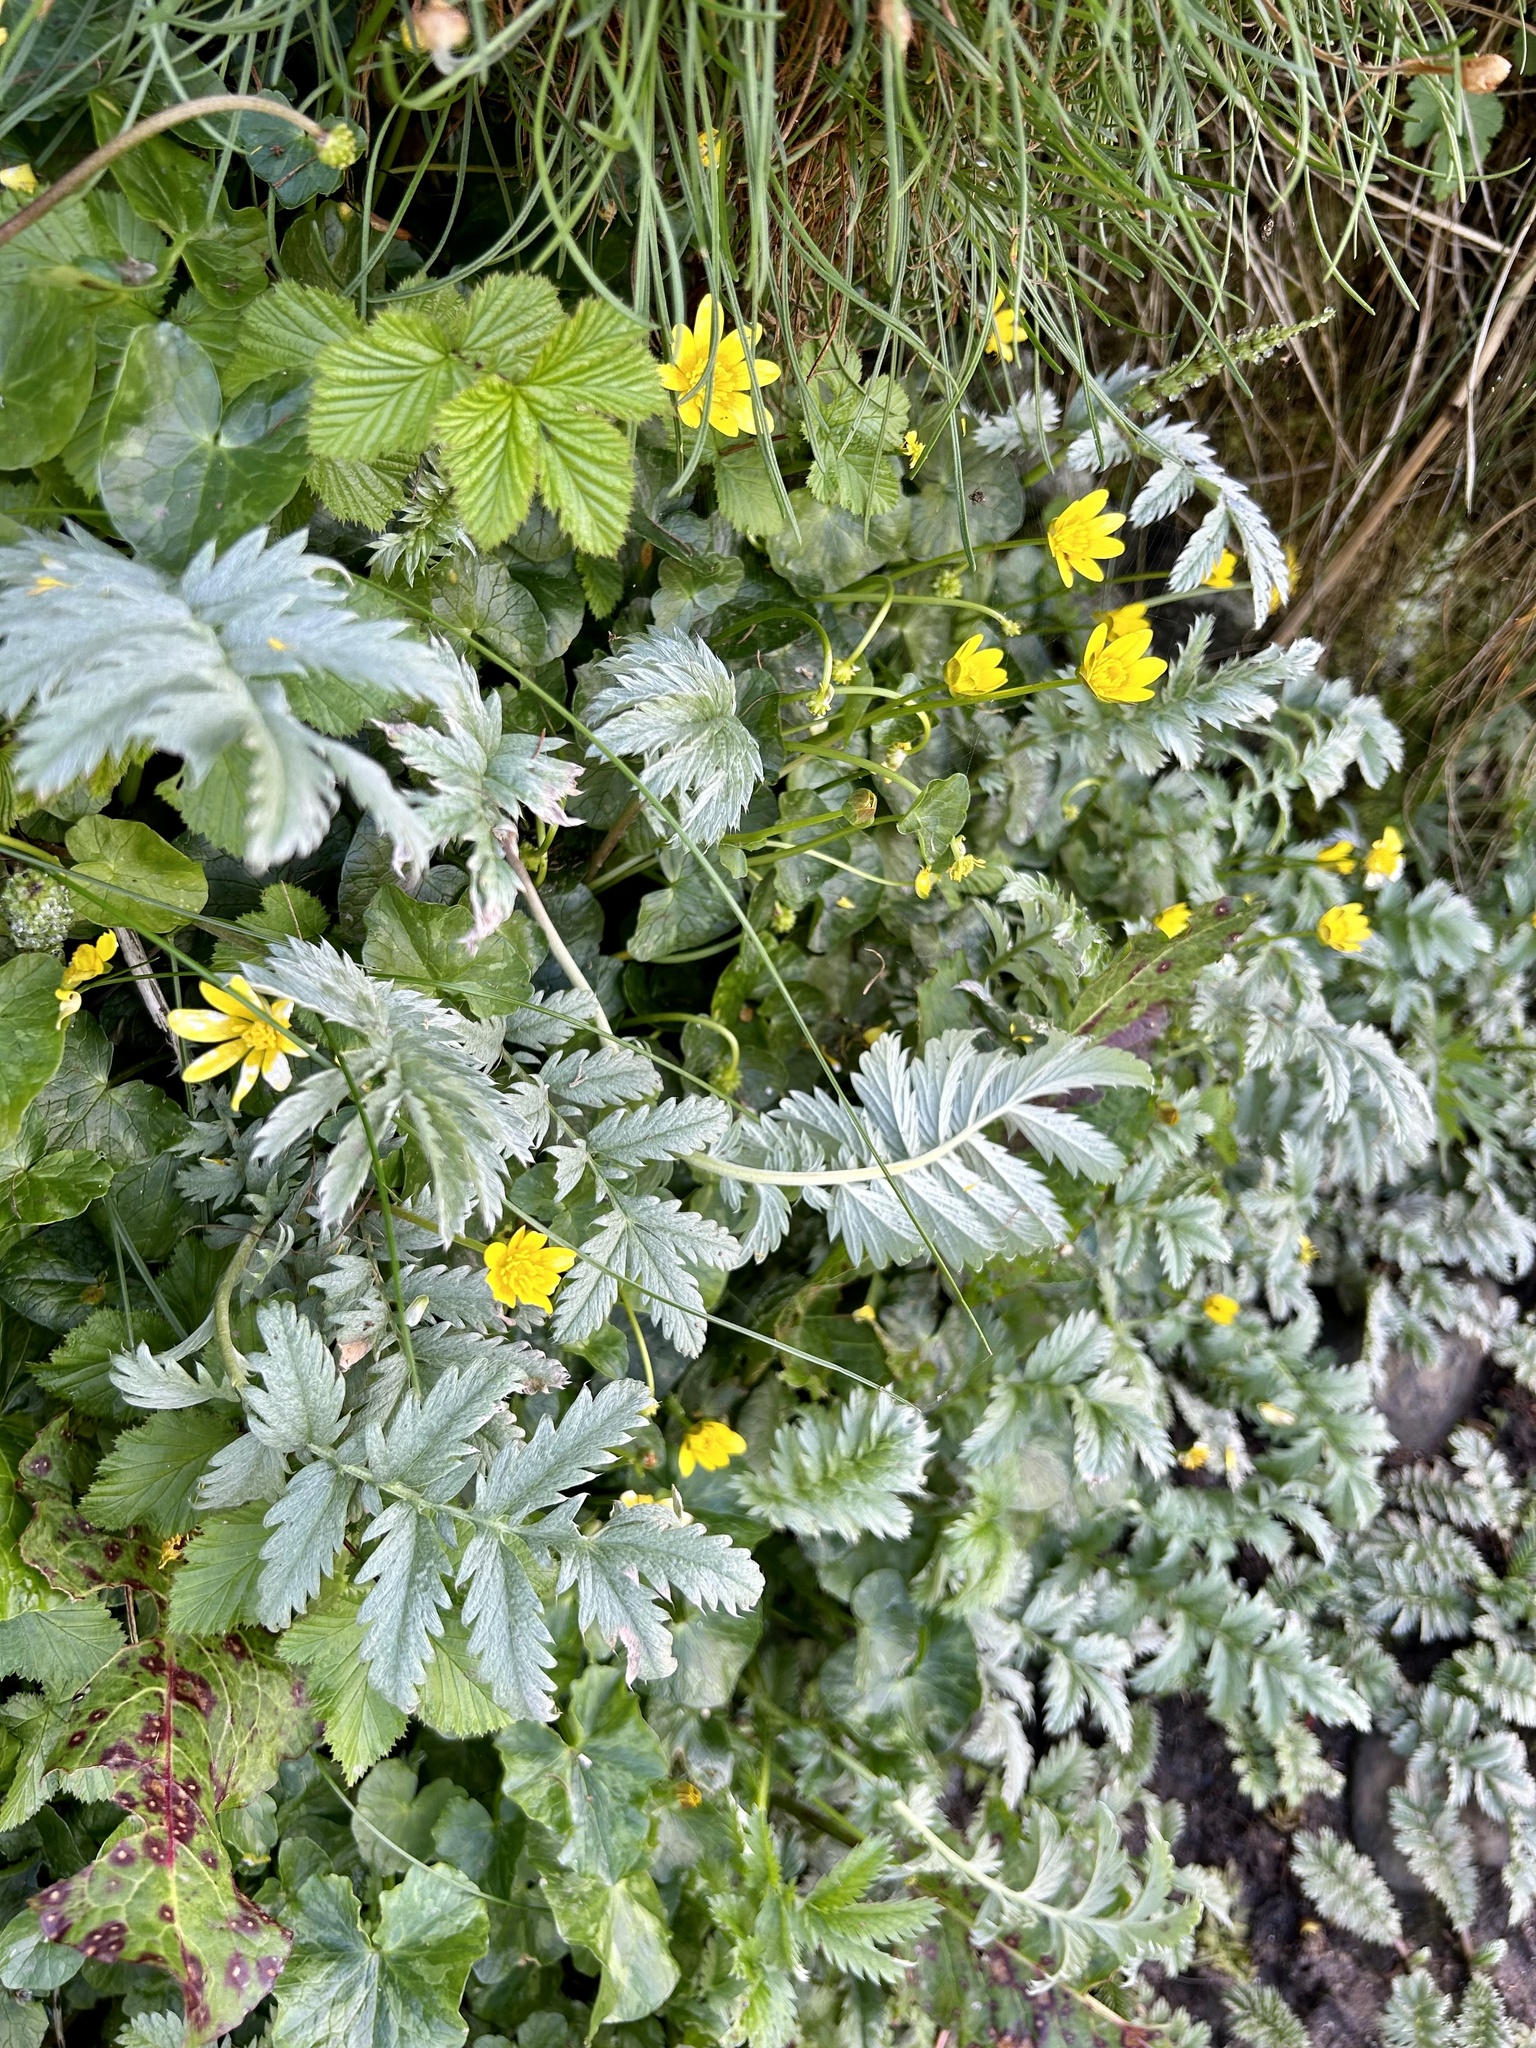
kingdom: Plantae
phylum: Tracheophyta
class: Magnoliopsida
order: Rosales
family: Rosaceae
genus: Argentina
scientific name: Argentina anserina
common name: Common silverweed
